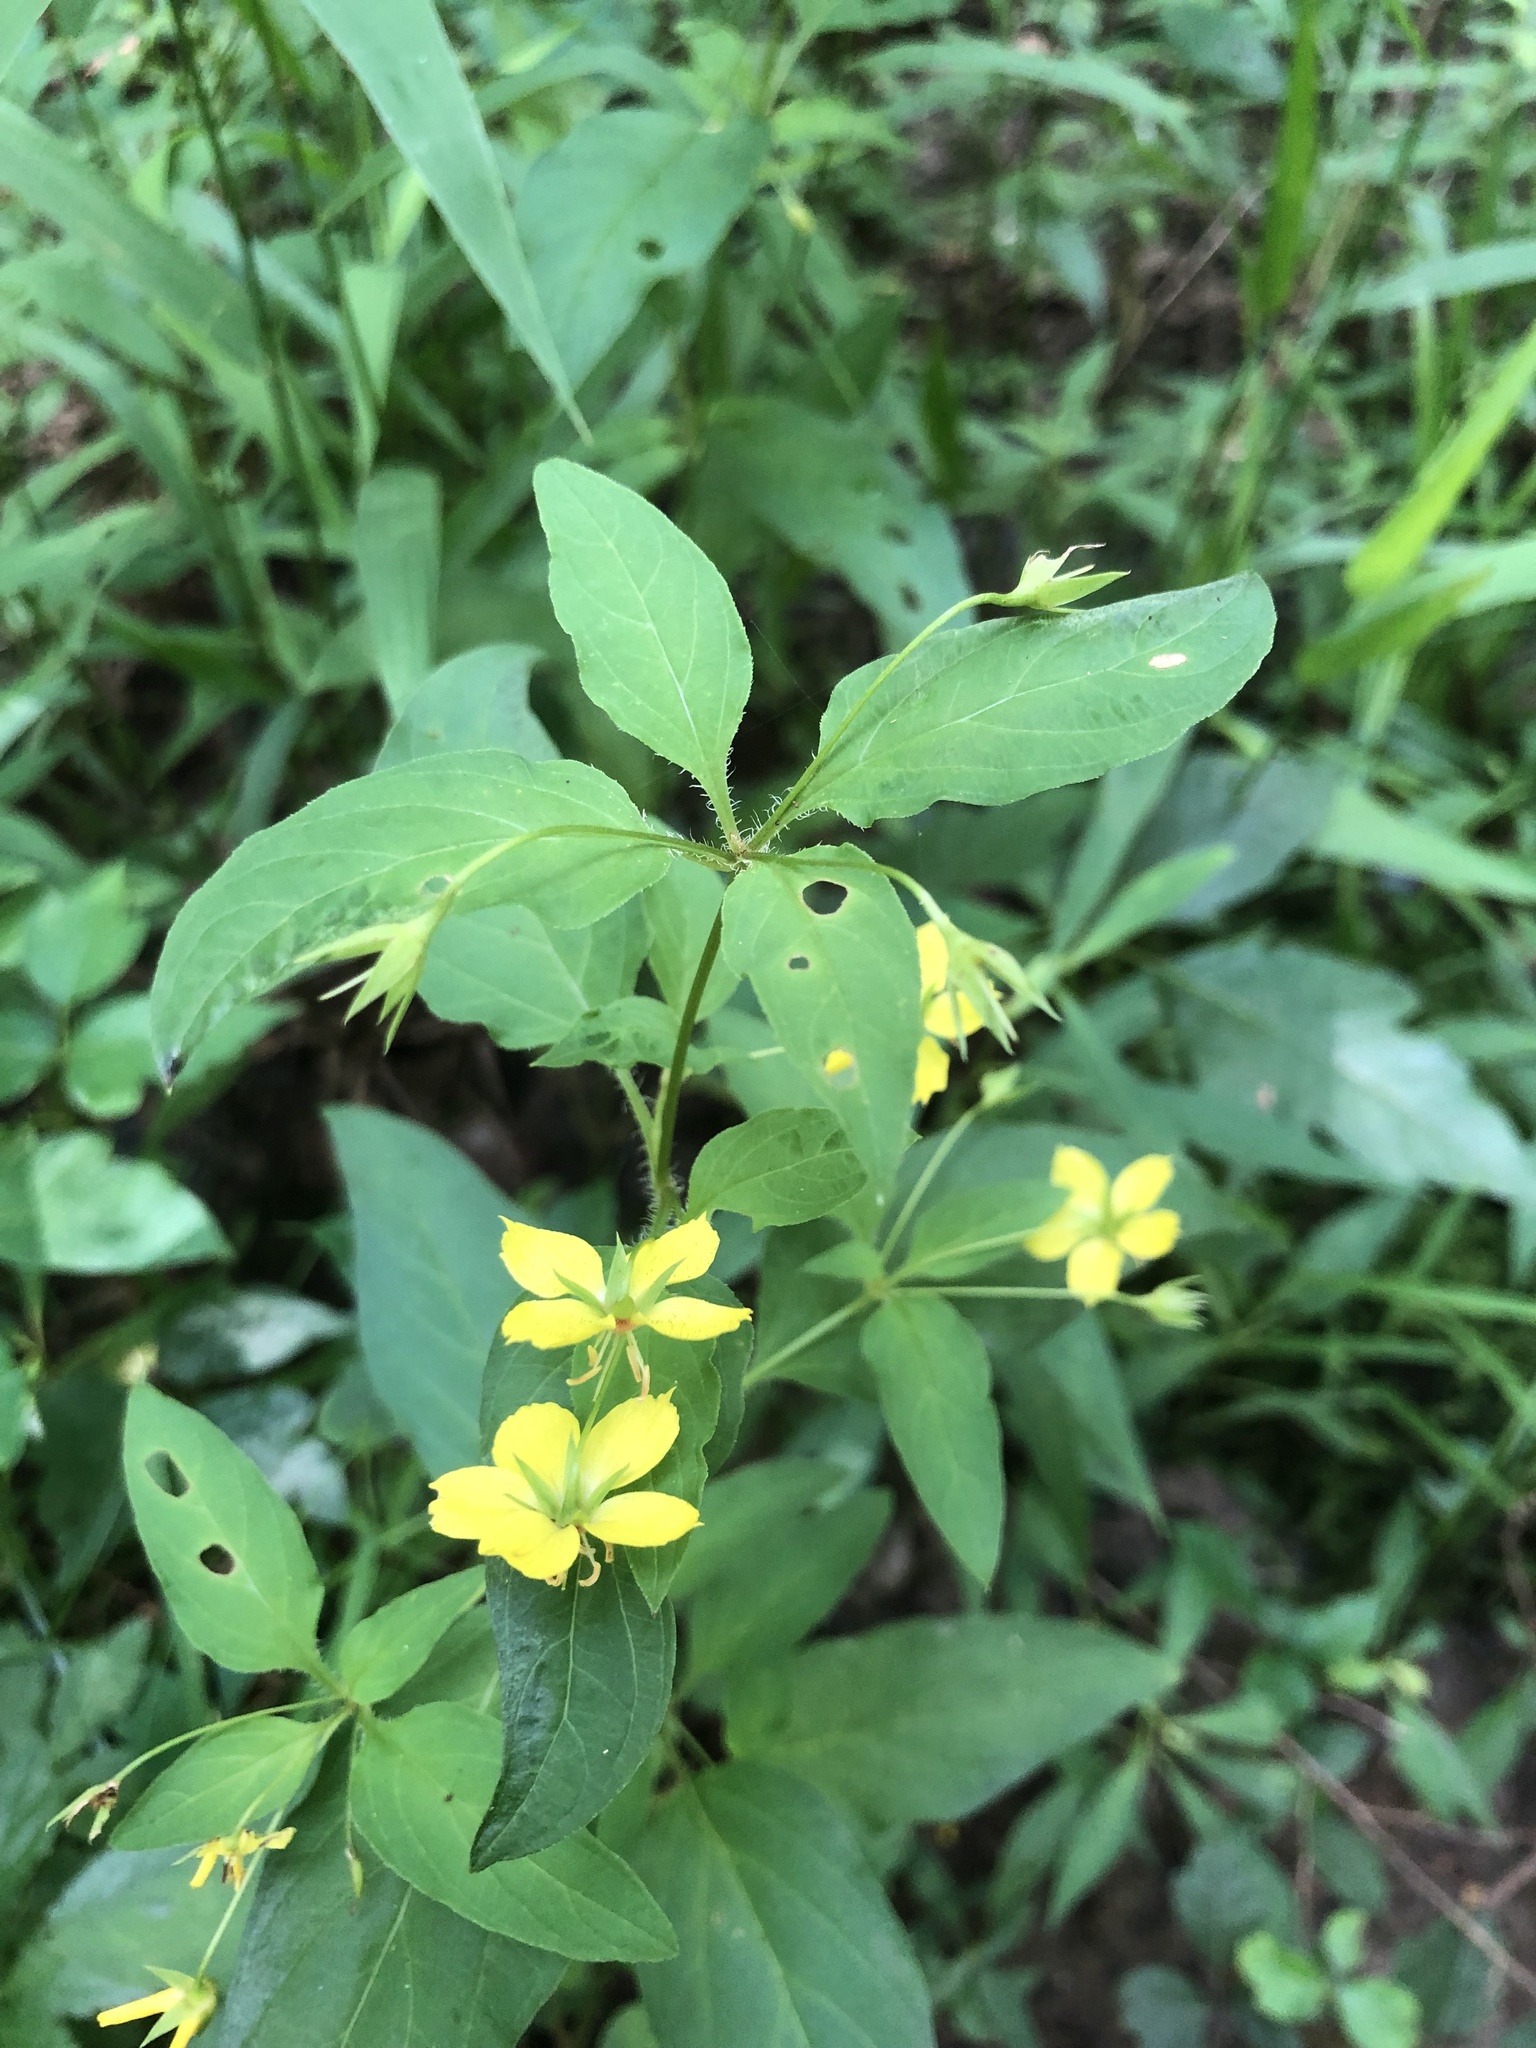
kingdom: Plantae
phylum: Tracheophyta
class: Magnoliopsida
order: Ericales
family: Primulaceae
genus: Lysimachia
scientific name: Lysimachia ciliata
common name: Fringed loosestrife
